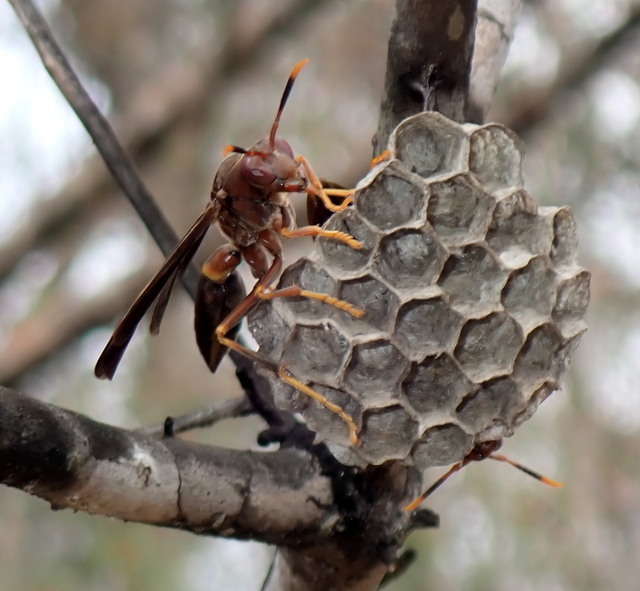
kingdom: Animalia
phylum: Arthropoda
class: Insecta
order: Hymenoptera
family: Eumenidae
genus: Polistes
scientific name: Polistes annularis
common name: Ringed paper wasp
